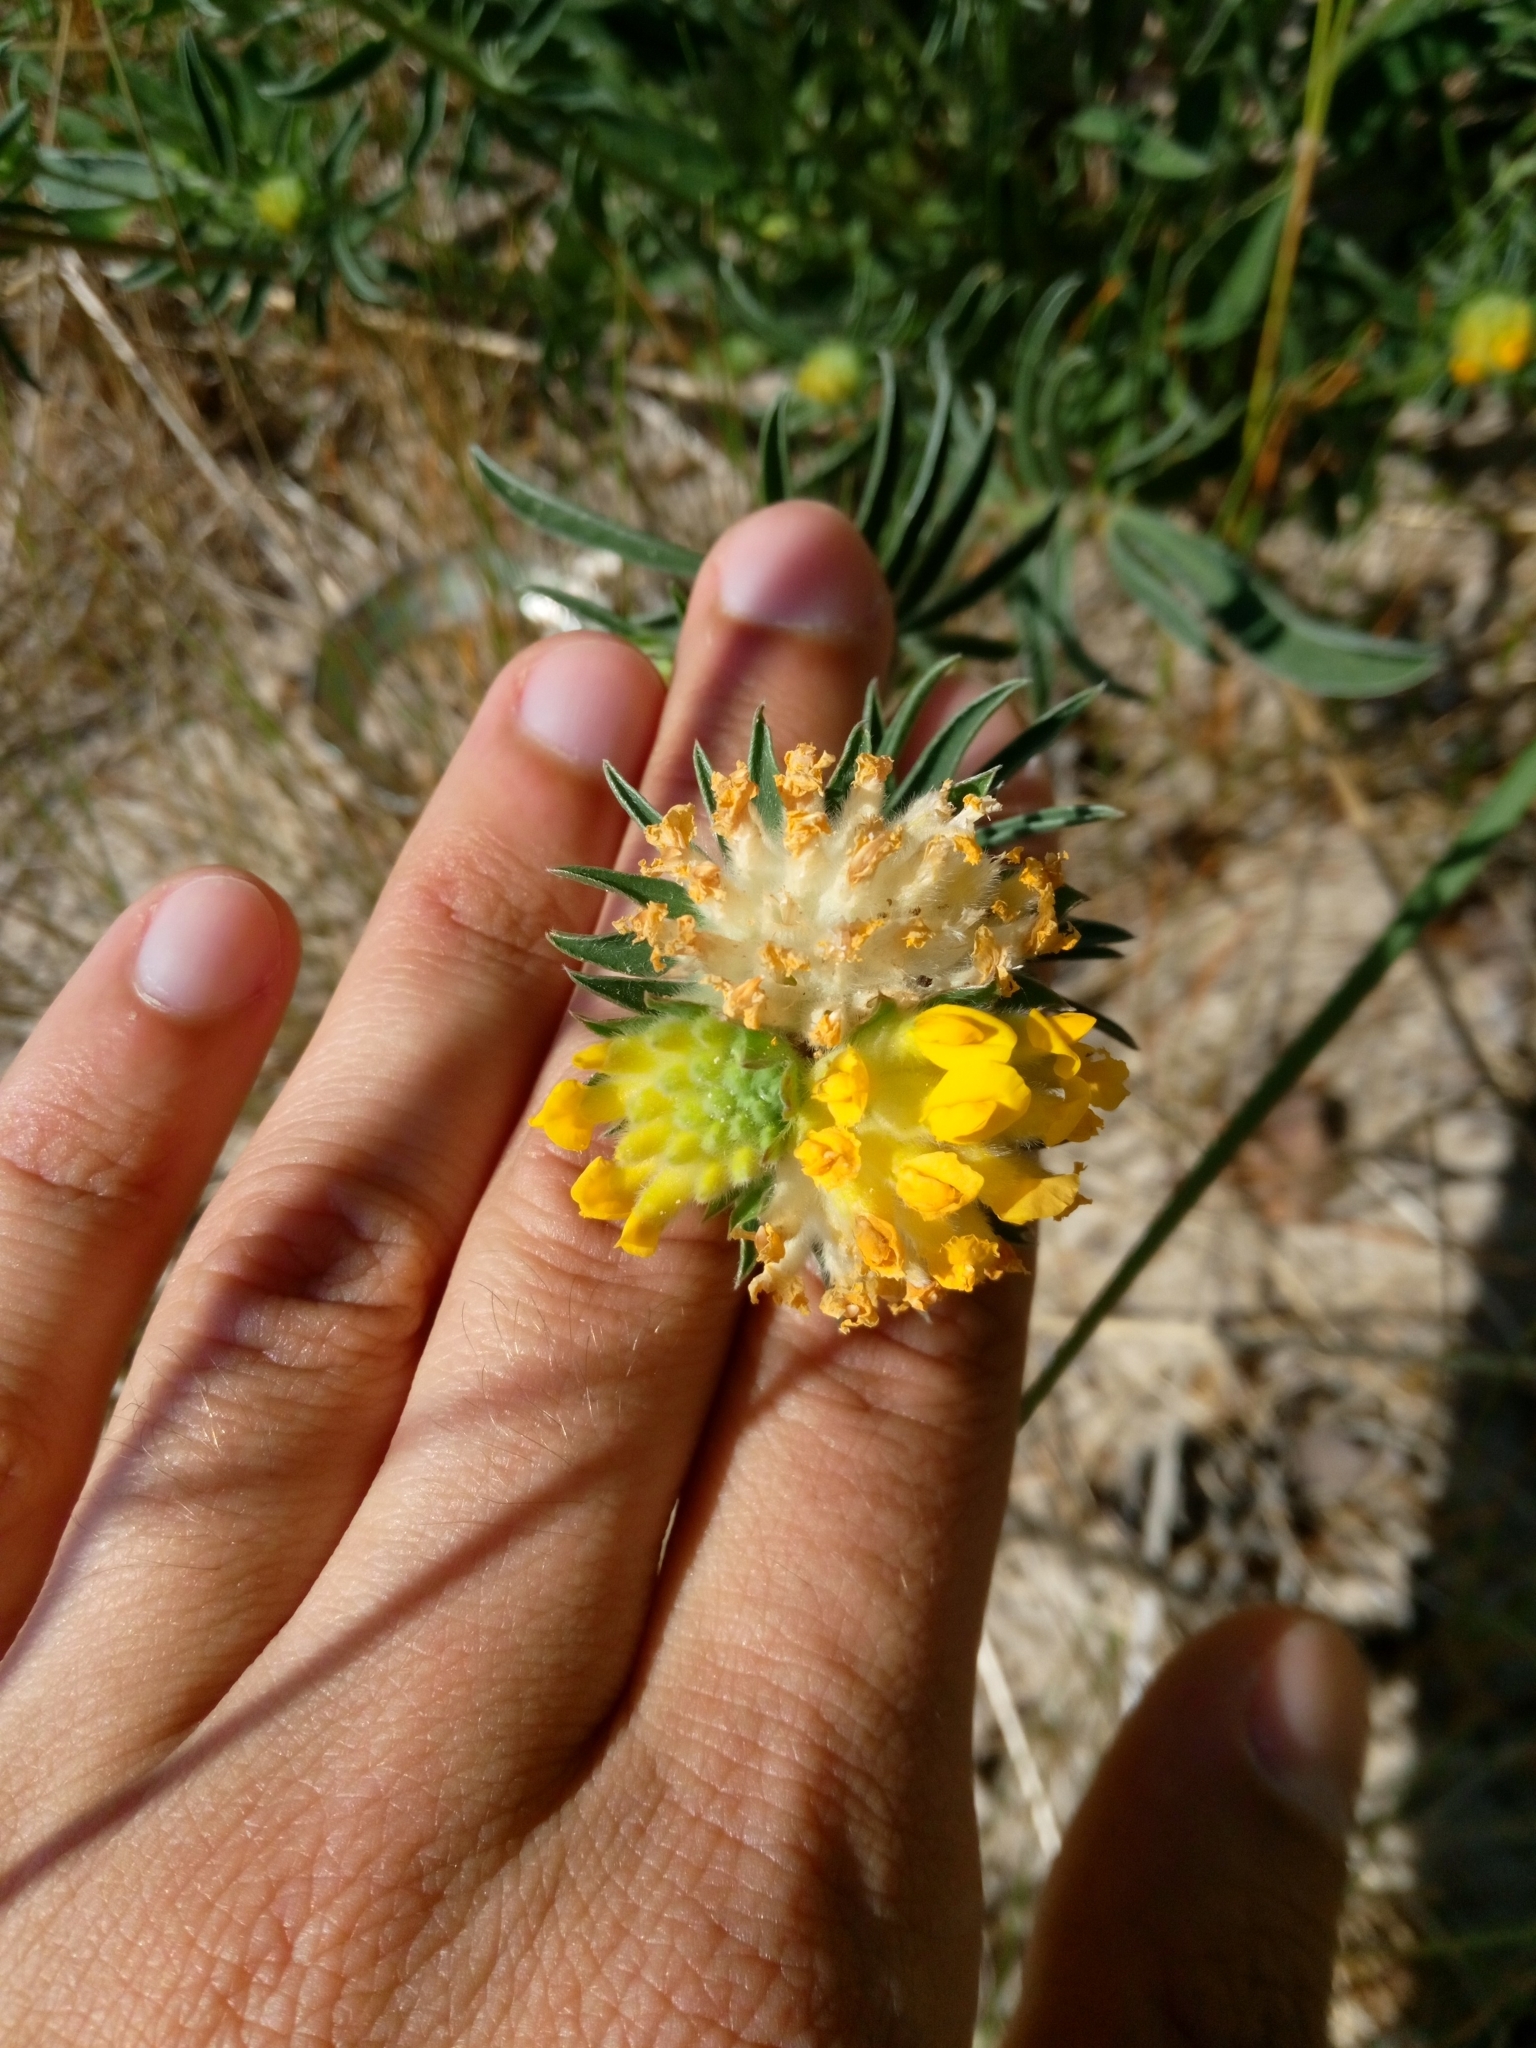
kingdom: Plantae
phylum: Tracheophyta
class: Magnoliopsida
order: Fabales
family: Fabaceae
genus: Anthyllis
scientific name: Anthyllis vulneraria
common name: Kidney vetch
